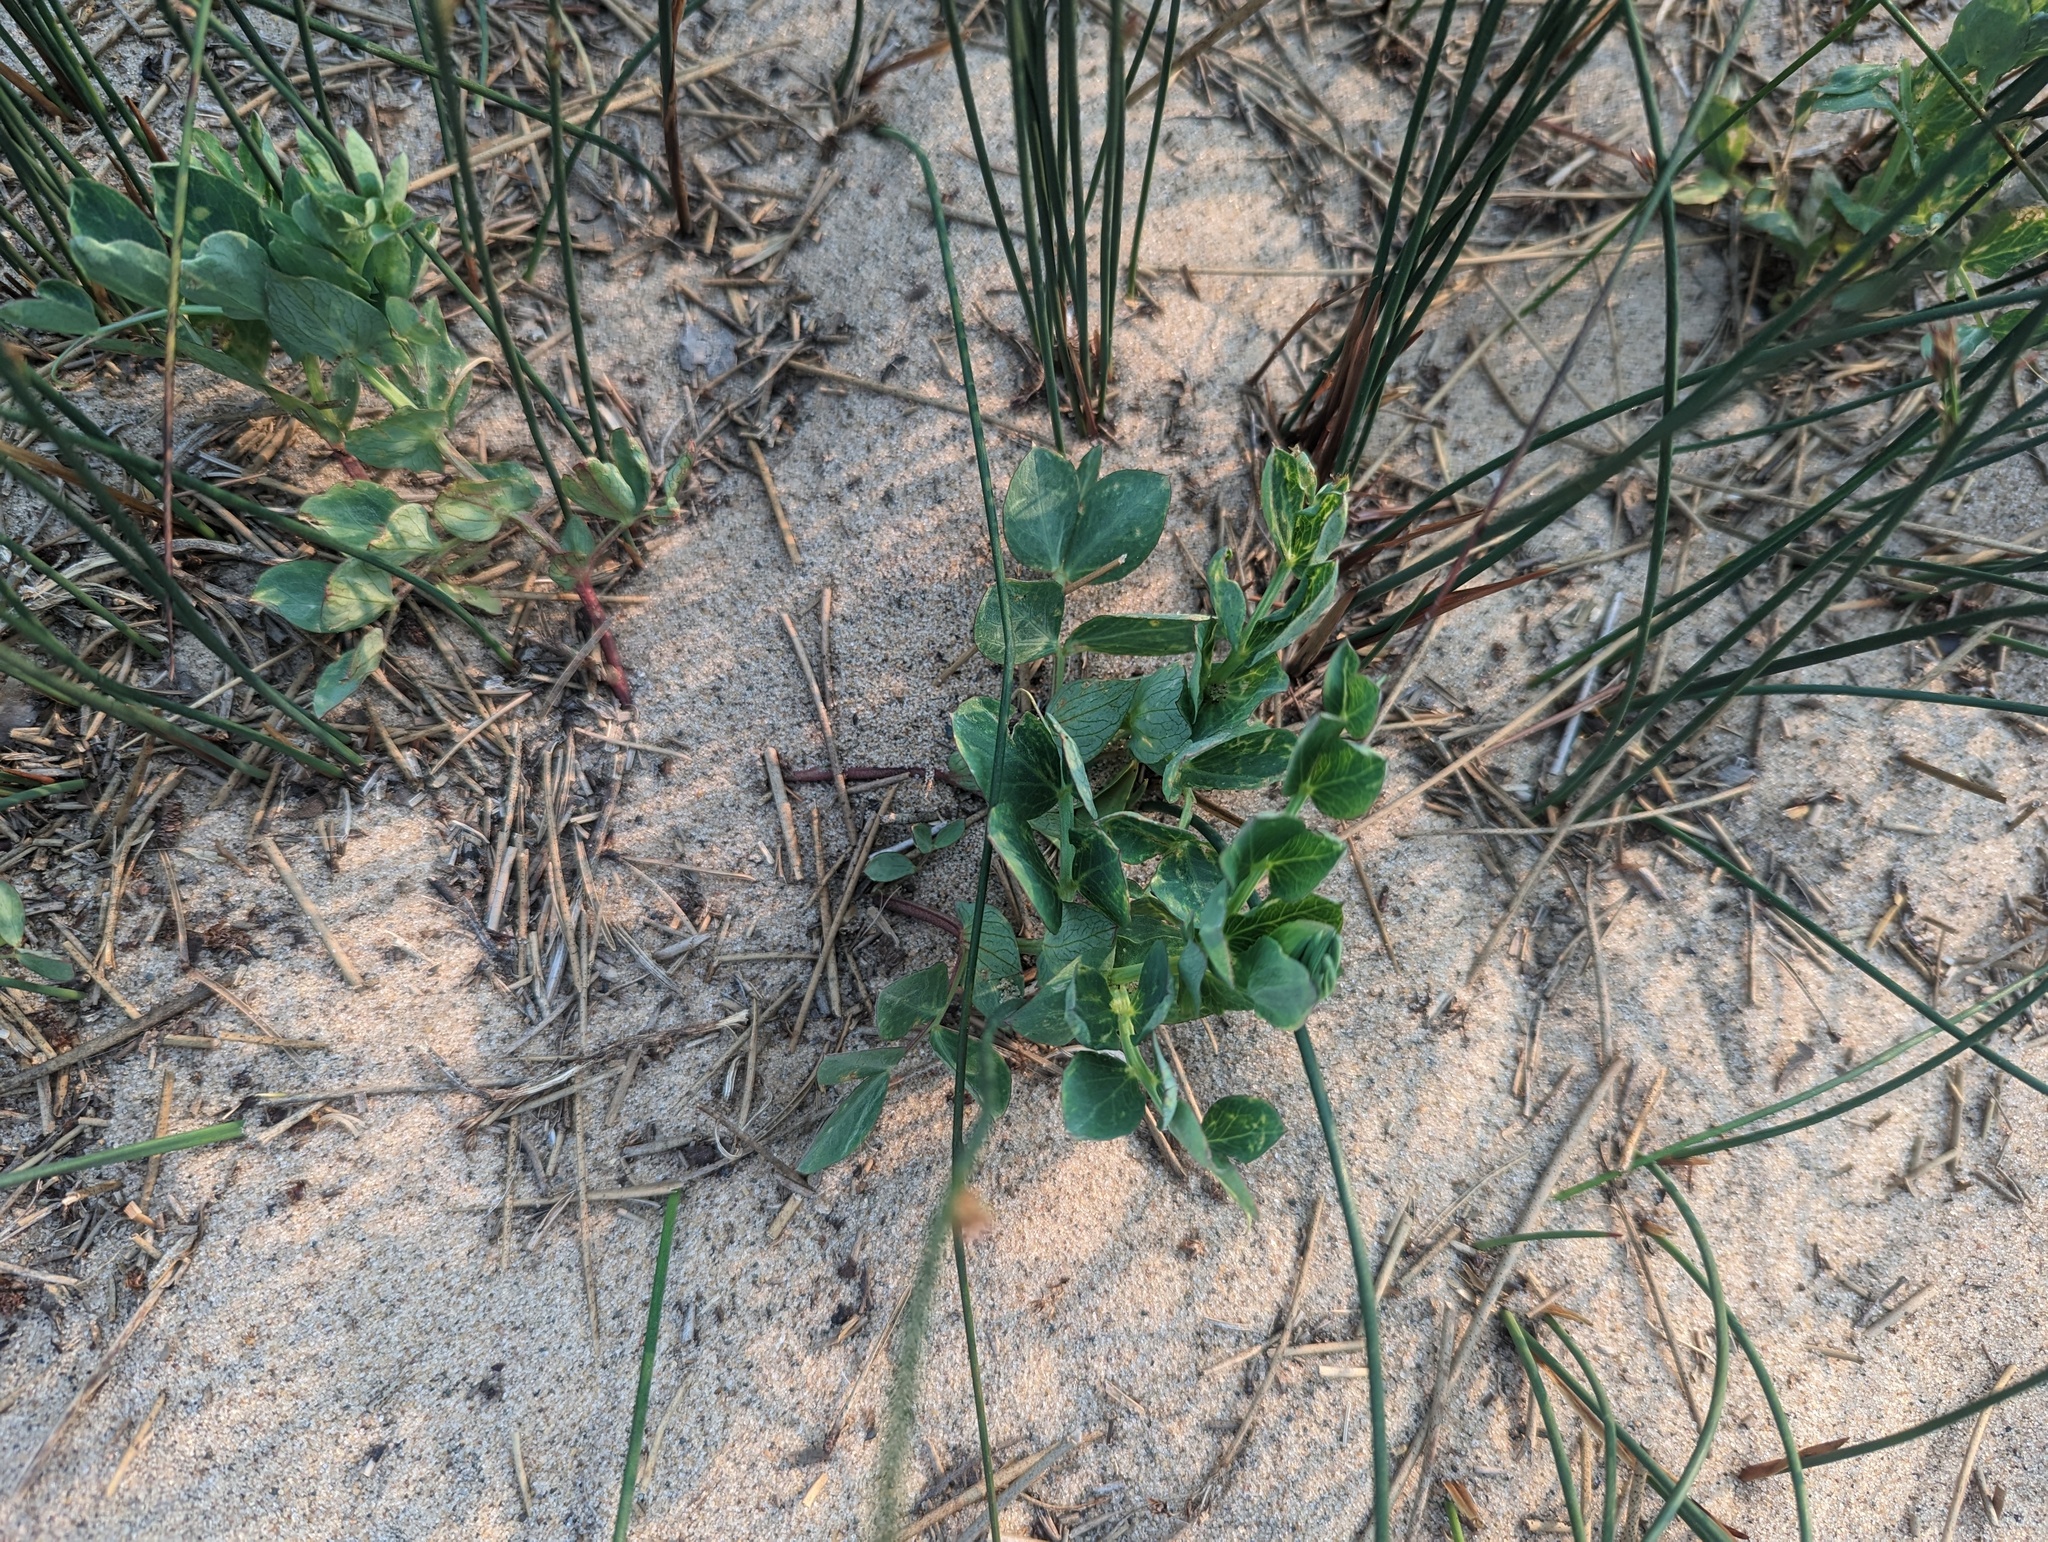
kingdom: Plantae
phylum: Tracheophyta
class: Magnoliopsida
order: Fabales
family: Fabaceae
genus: Lathyrus
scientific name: Lathyrus japonicus
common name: Sea pea
